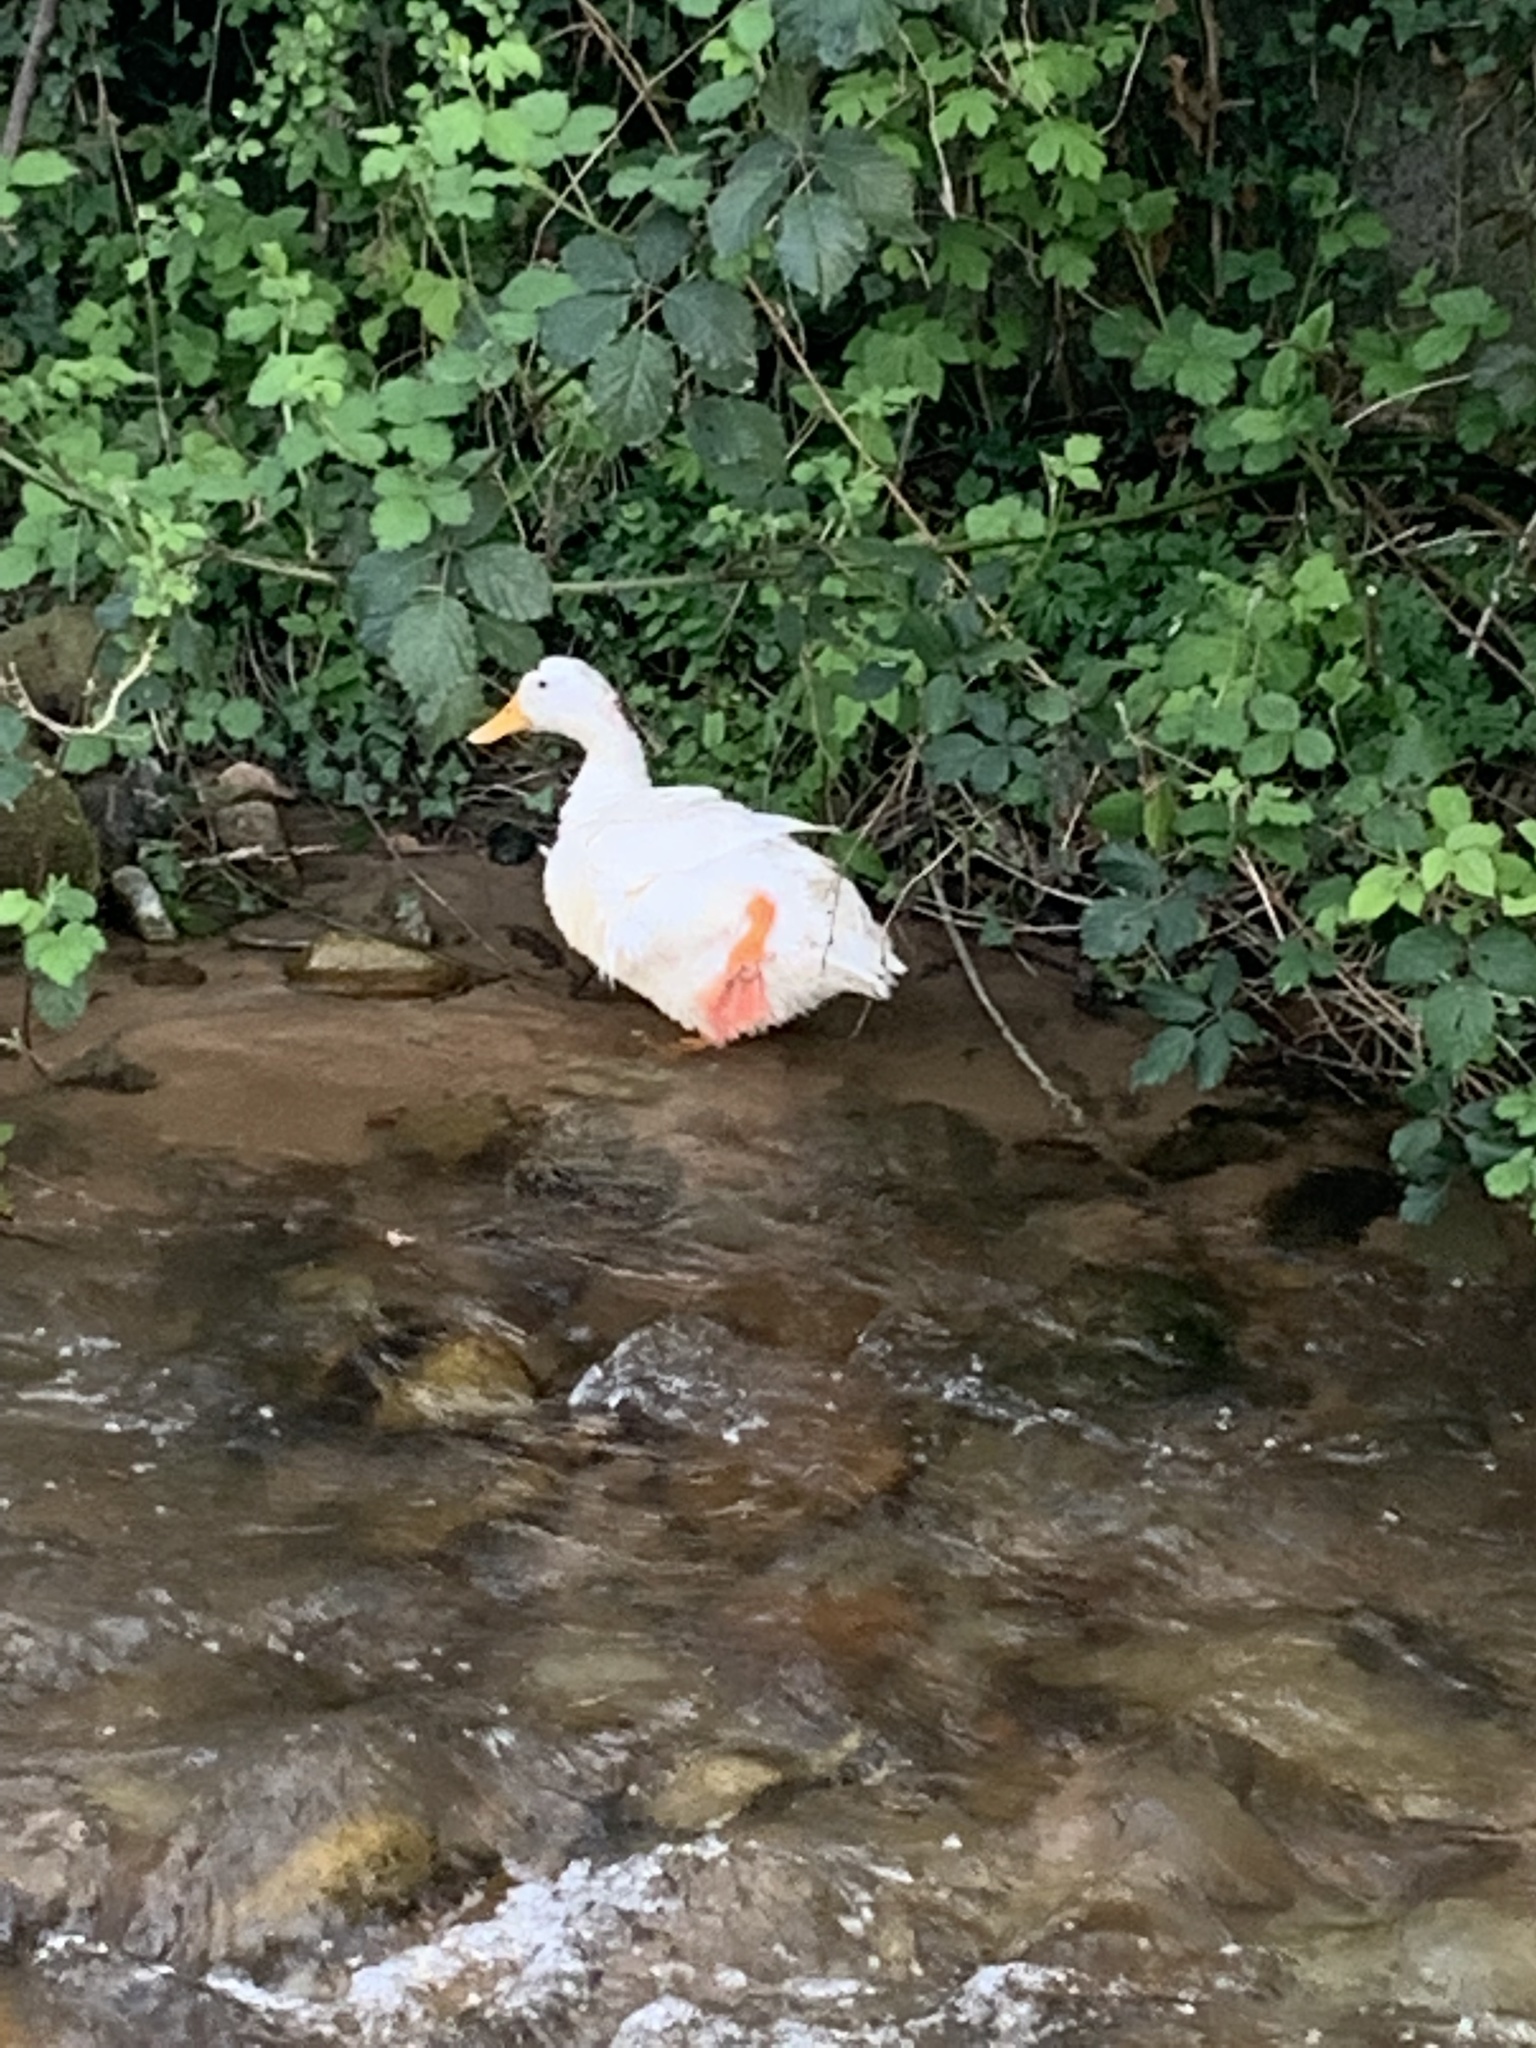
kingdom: Animalia
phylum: Chordata
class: Aves
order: Anseriformes
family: Anatidae
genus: Anas
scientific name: Anas platyrhynchos
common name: Mallard
